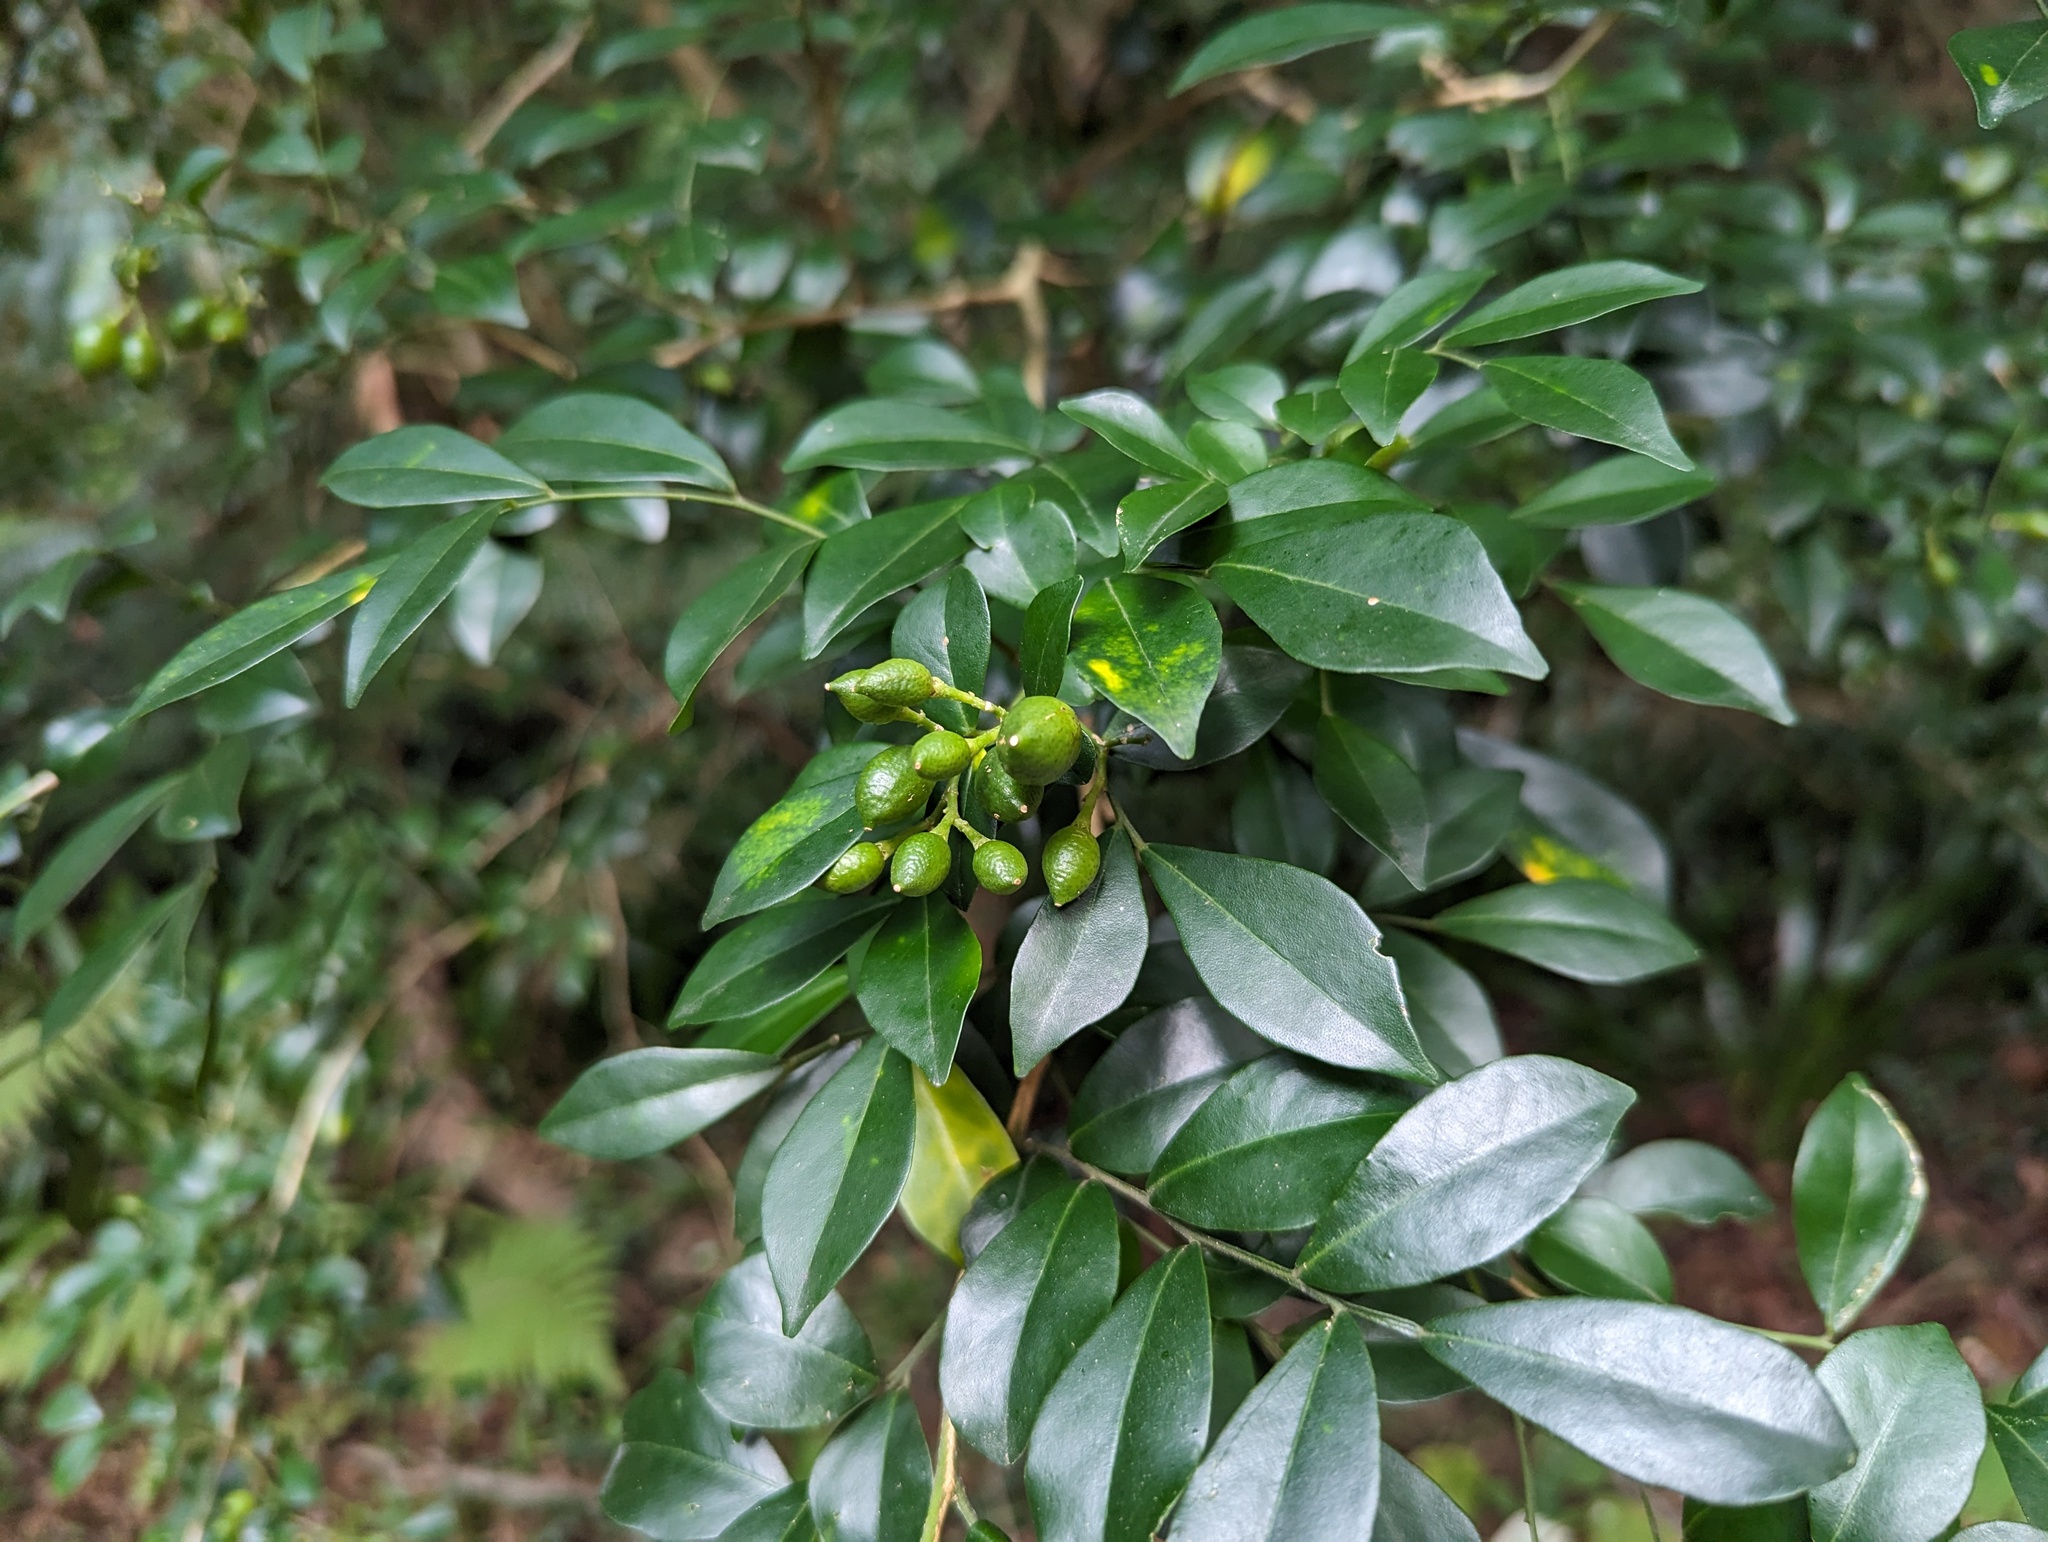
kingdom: Plantae
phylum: Tracheophyta
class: Magnoliopsida
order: Sapindales
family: Rutaceae
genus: Murraya
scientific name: Murraya paniculata
